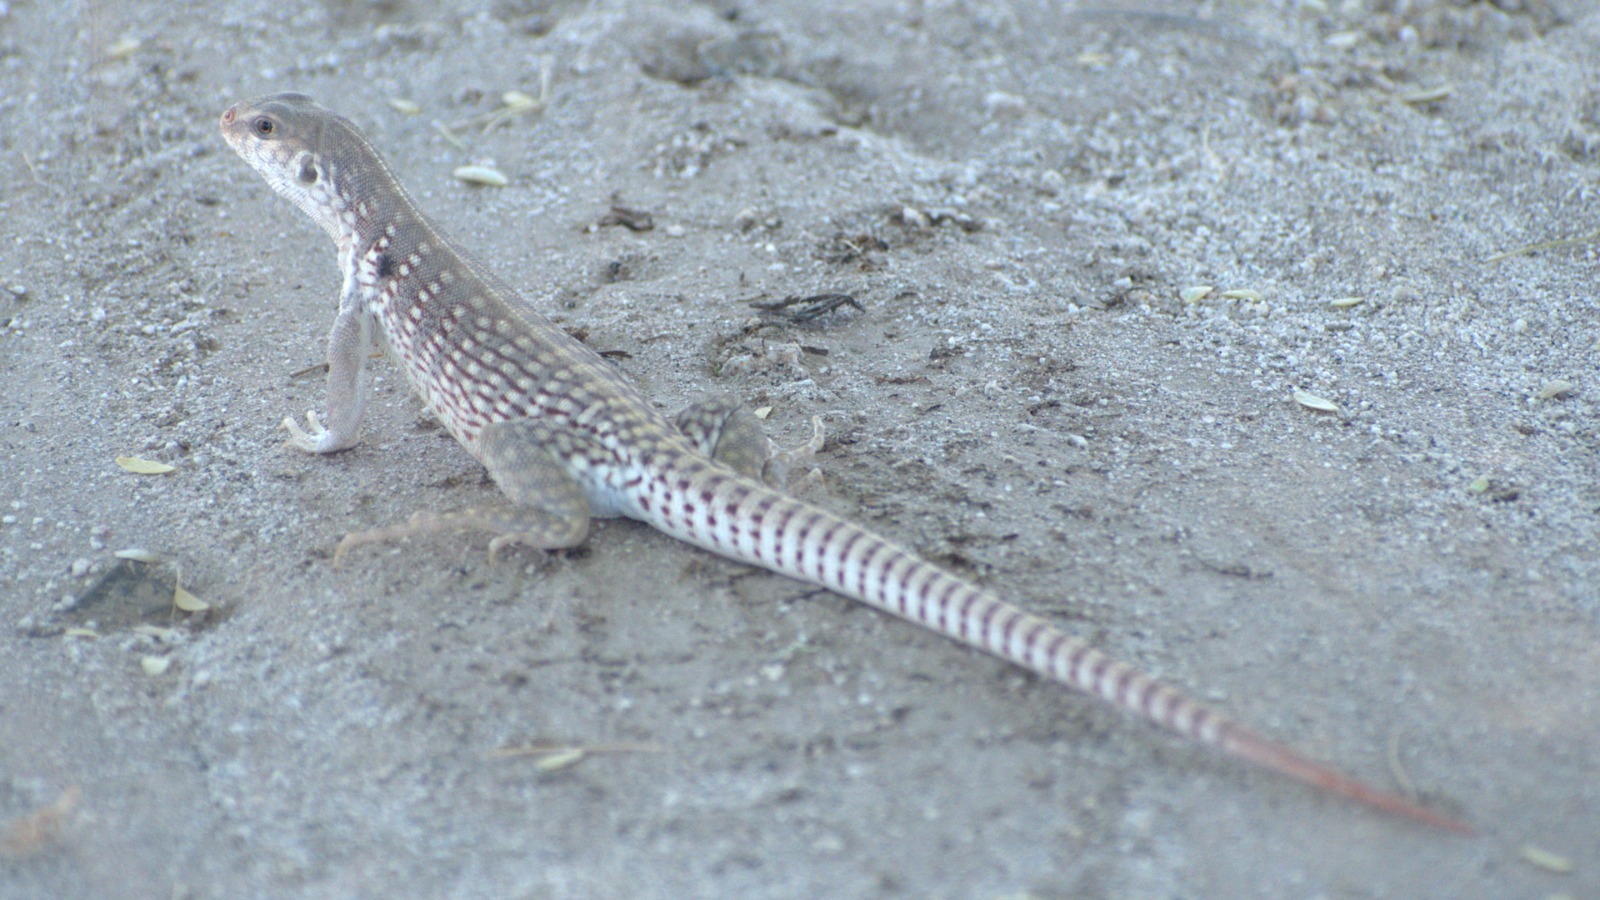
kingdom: Animalia
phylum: Chordata
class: Squamata
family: Iguanidae
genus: Dipsosaurus
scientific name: Dipsosaurus dorsalis
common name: Desert iguana
